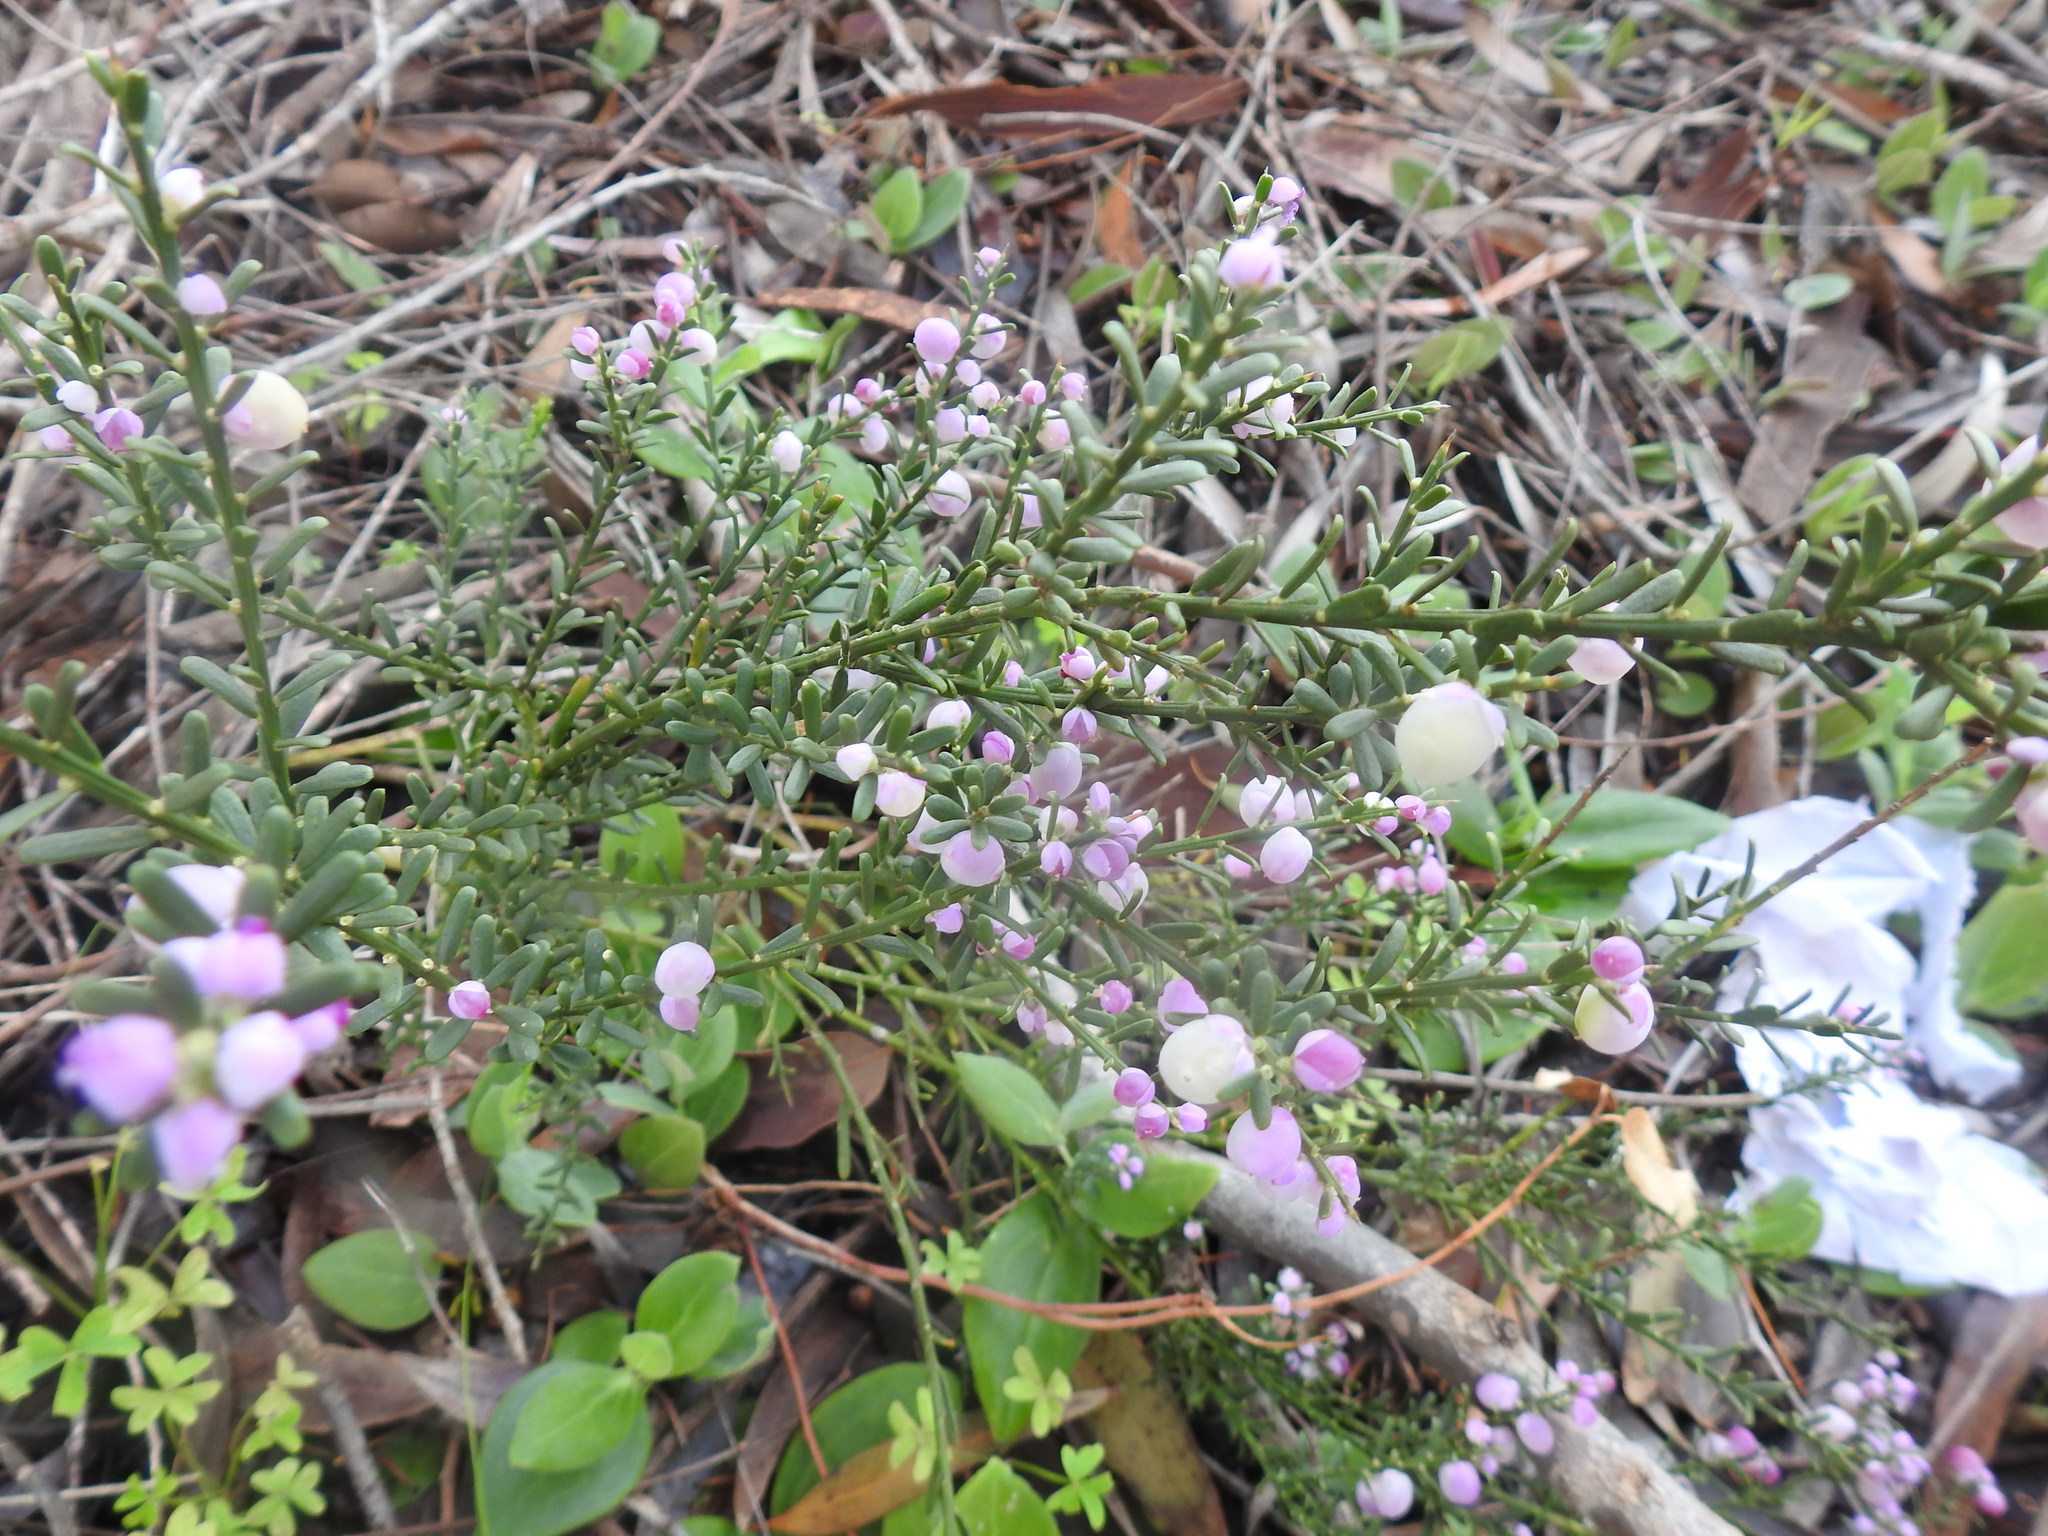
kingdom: Plantae
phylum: Tracheophyta
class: Magnoliopsida
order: Fabales
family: Polygalaceae
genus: Muraltia
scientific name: Muraltia spinosa
